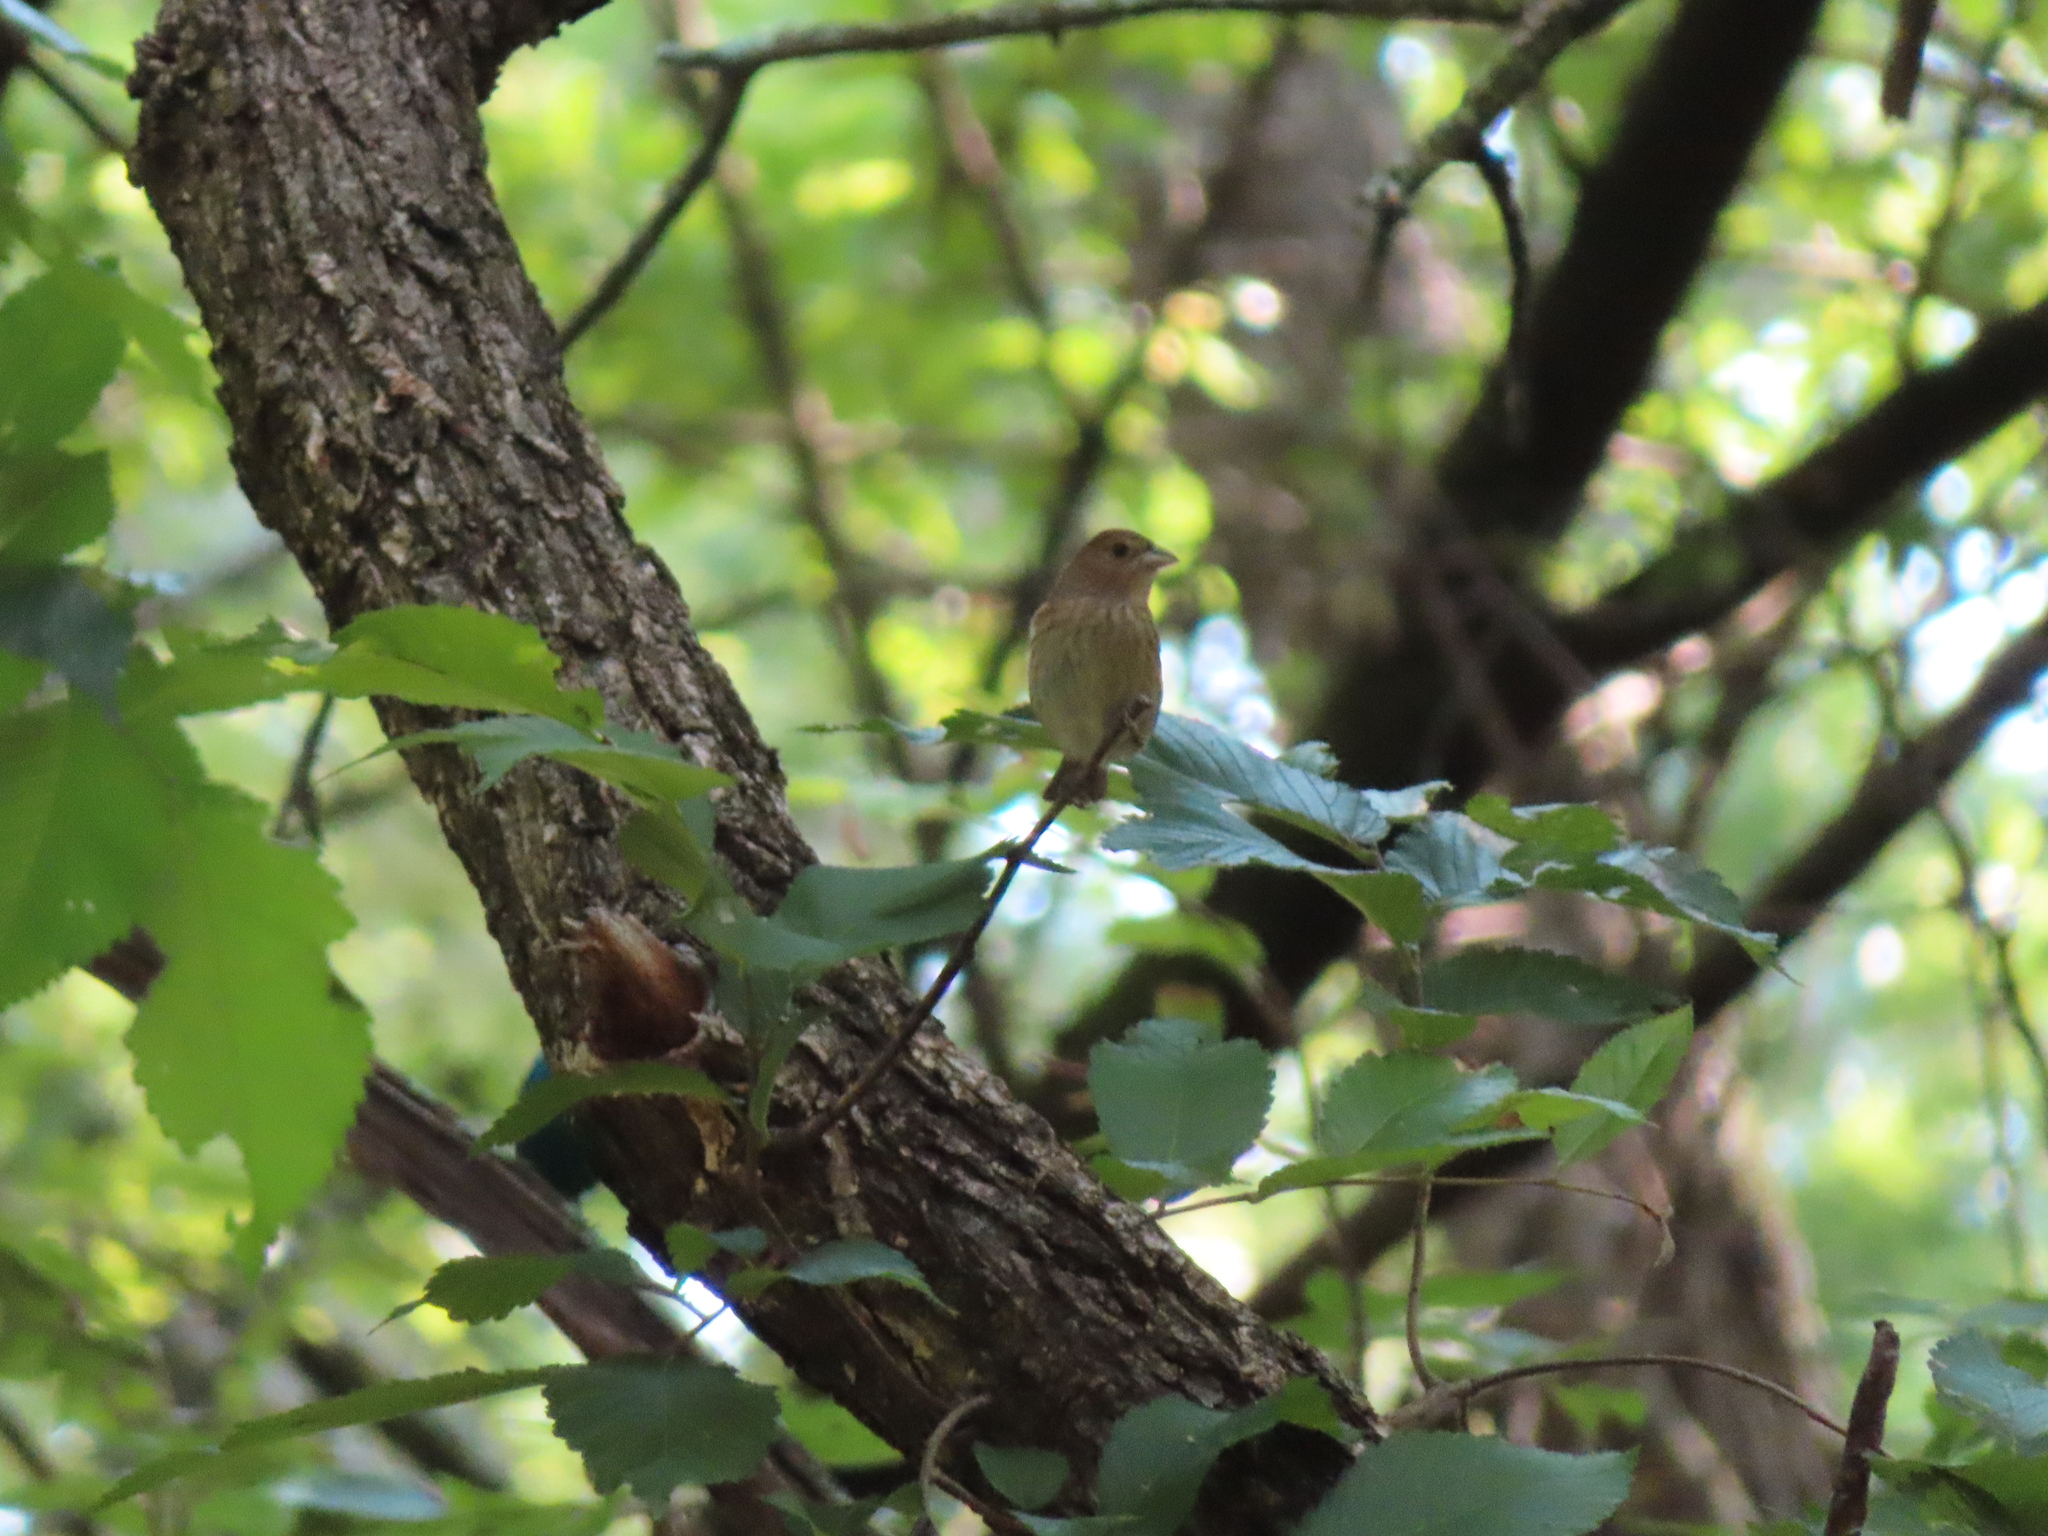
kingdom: Animalia
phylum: Chordata
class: Aves
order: Passeriformes
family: Cardinalidae
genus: Passerina
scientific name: Passerina cyanea
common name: Indigo bunting
